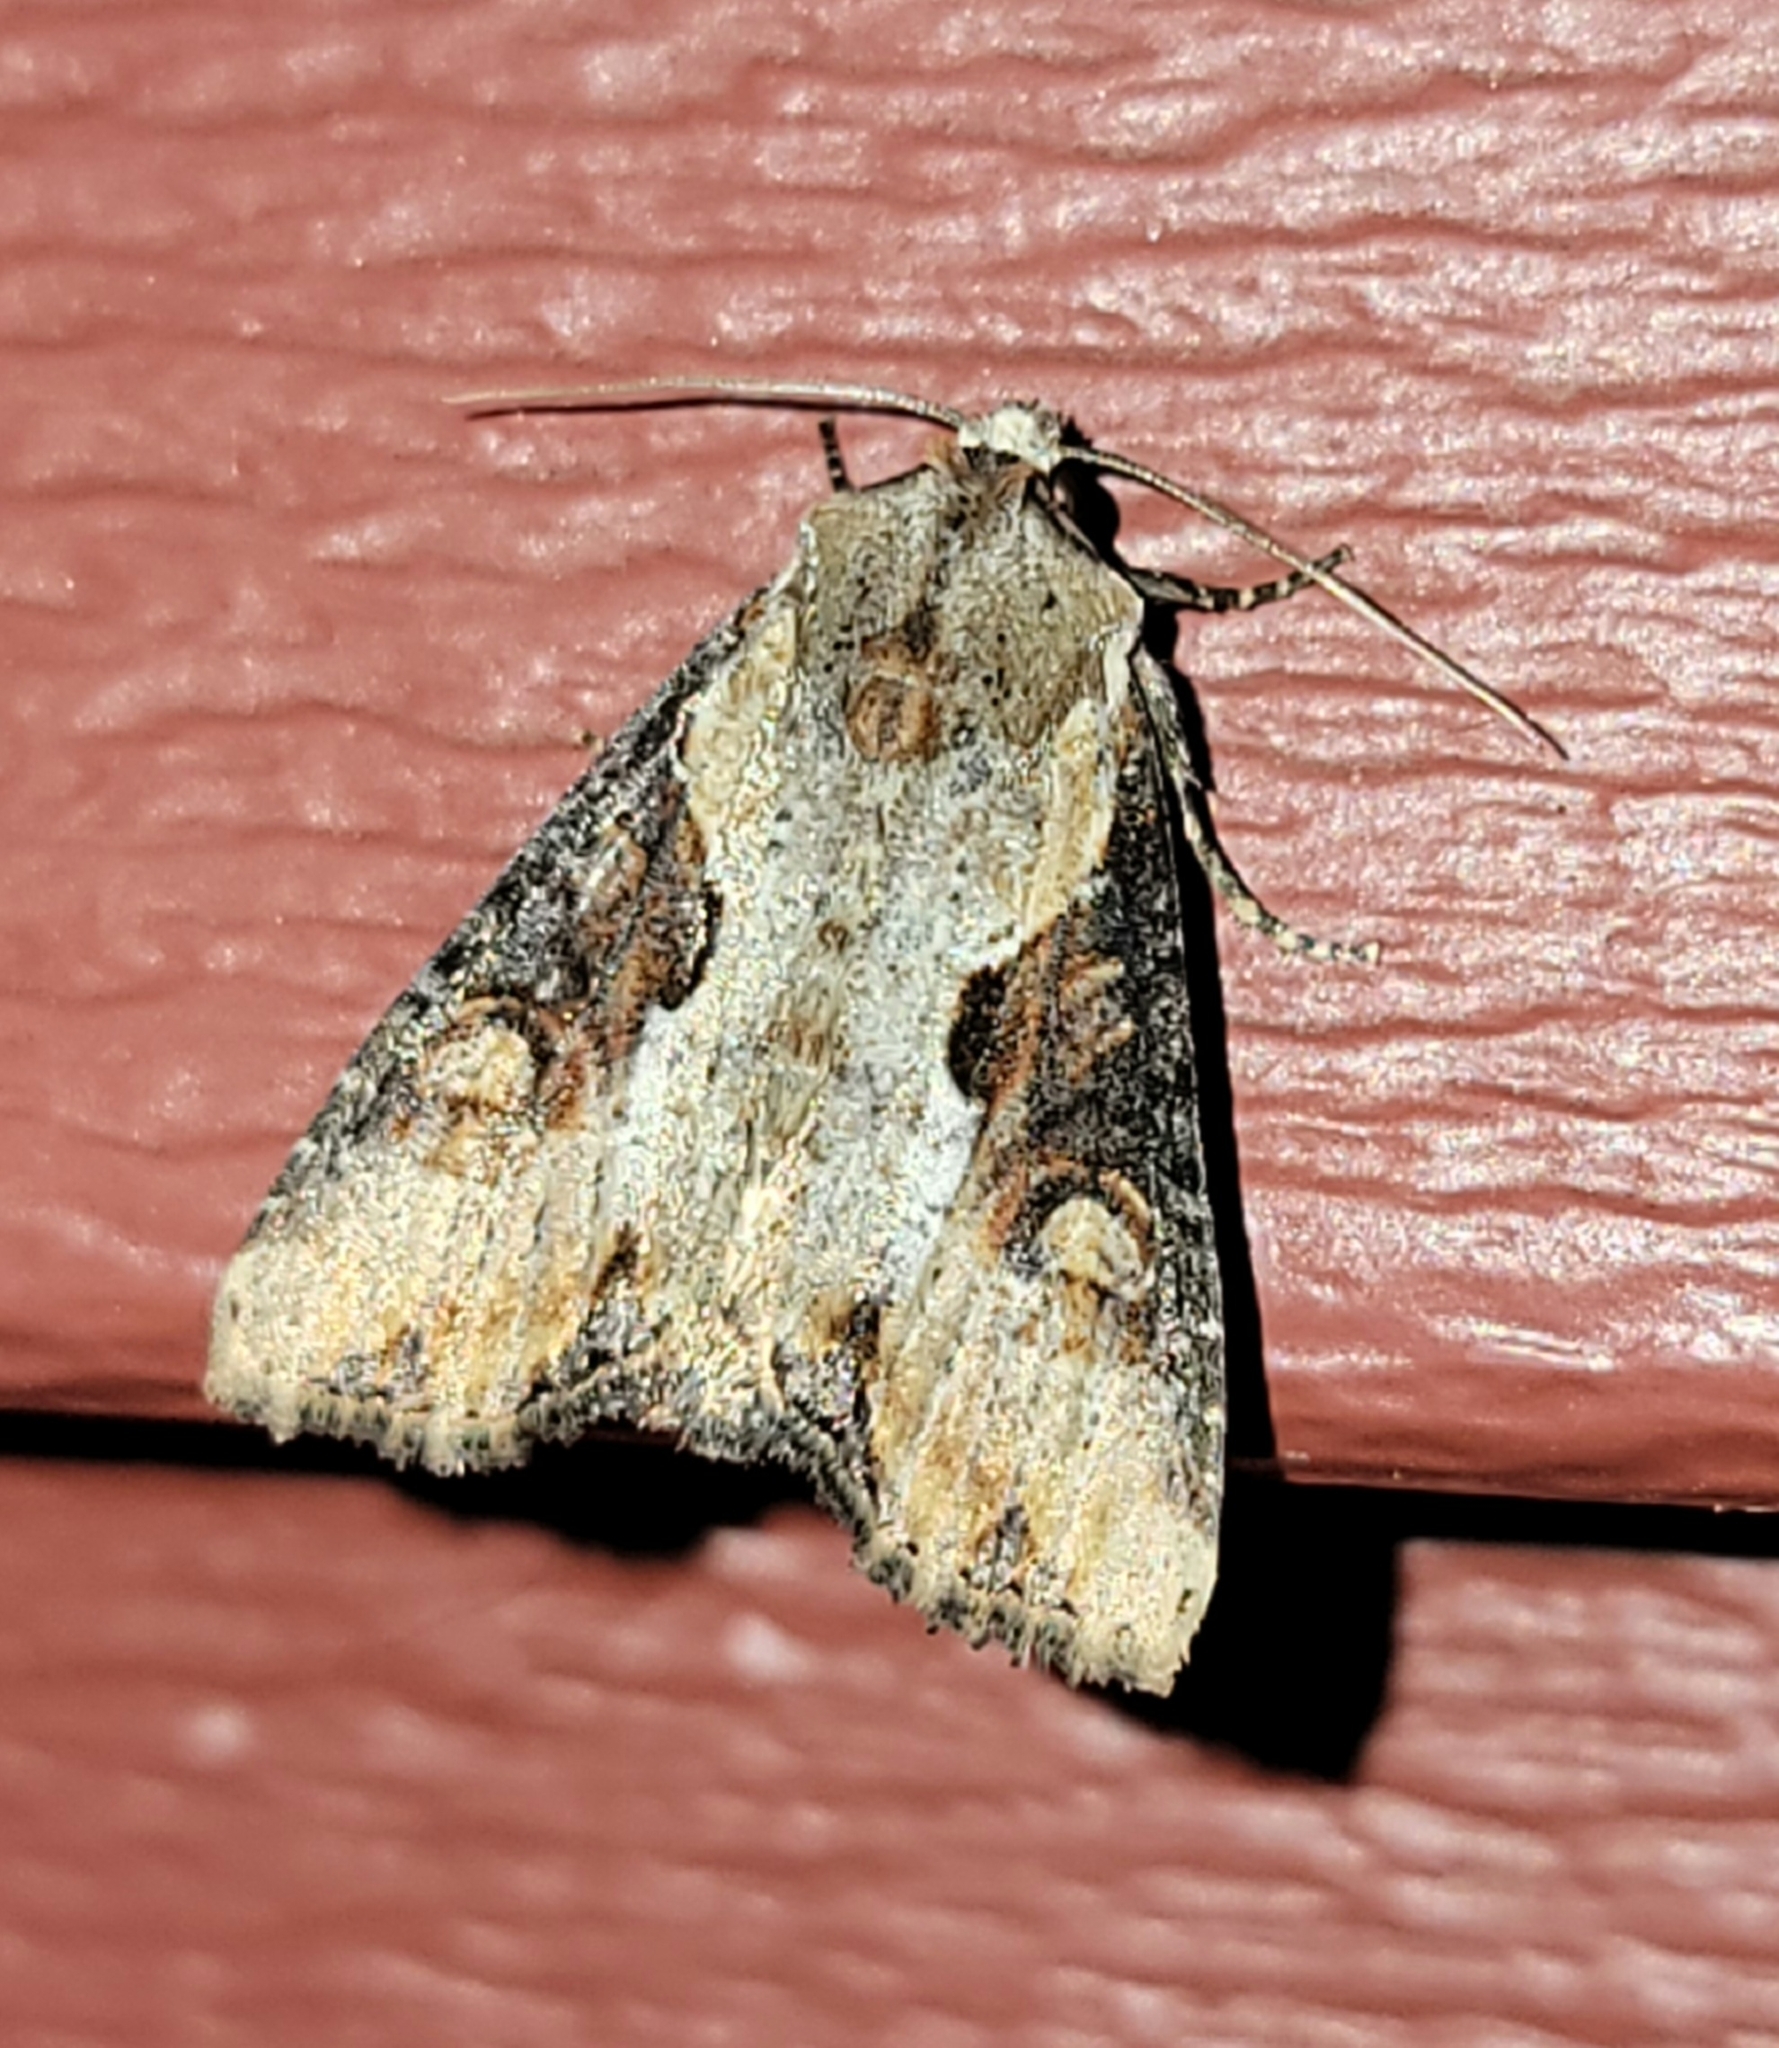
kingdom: Animalia
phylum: Arthropoda
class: Insecta
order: Lepidoptera
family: Noctuidae
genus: Lateroligia
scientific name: Lateroligia ophiogramma
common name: Double lobed
